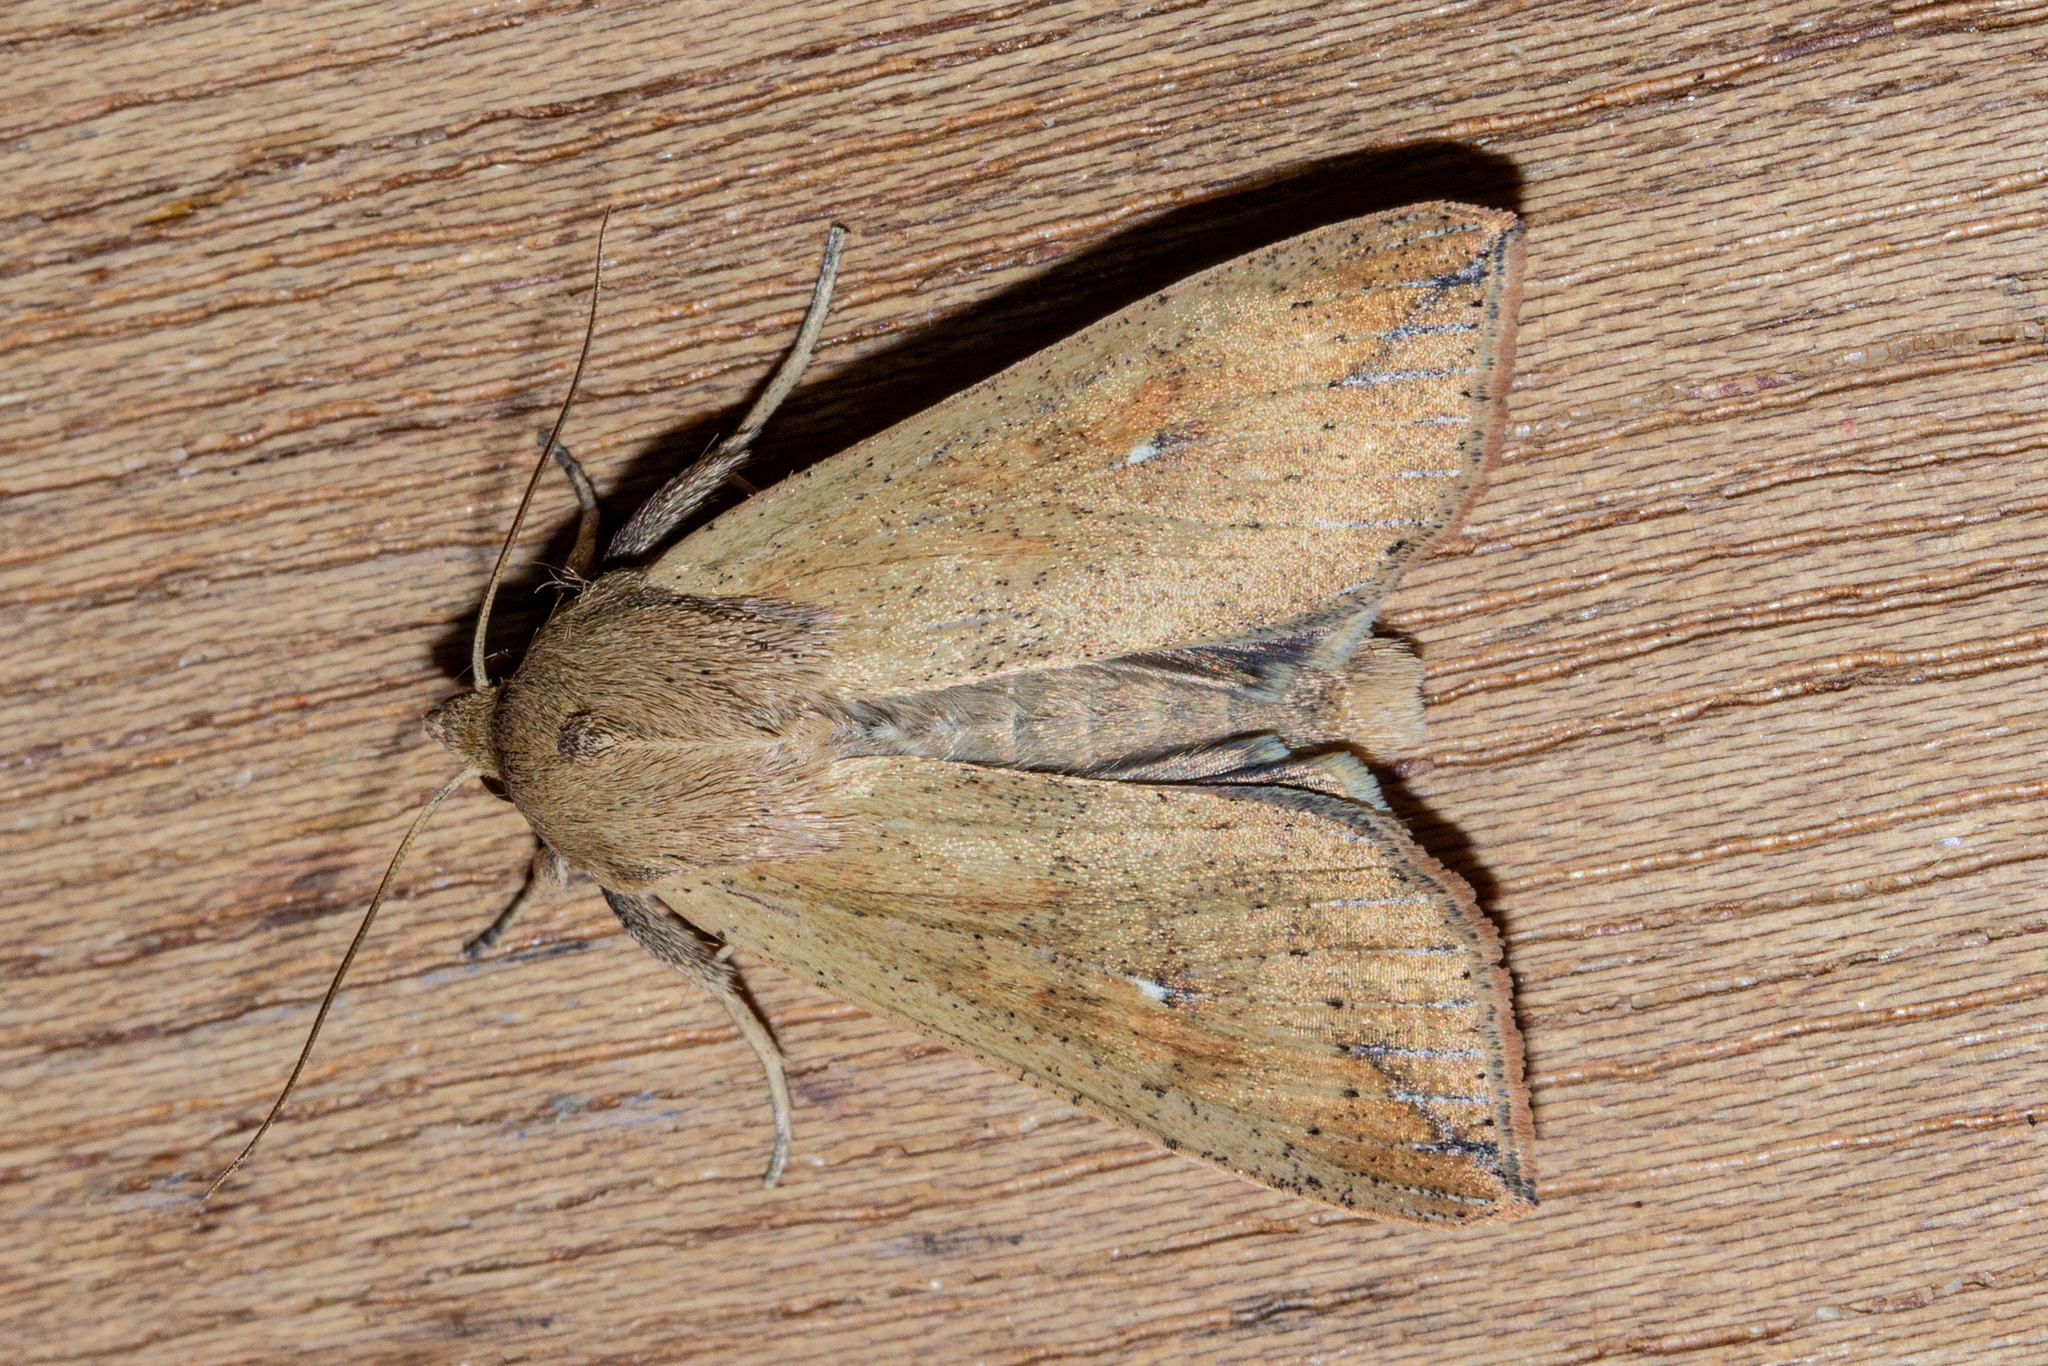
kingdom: Animalia
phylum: Arthropoda
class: Insecta
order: Lepidoptera
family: Noctuidae
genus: Mythimna
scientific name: Mythimna separata
